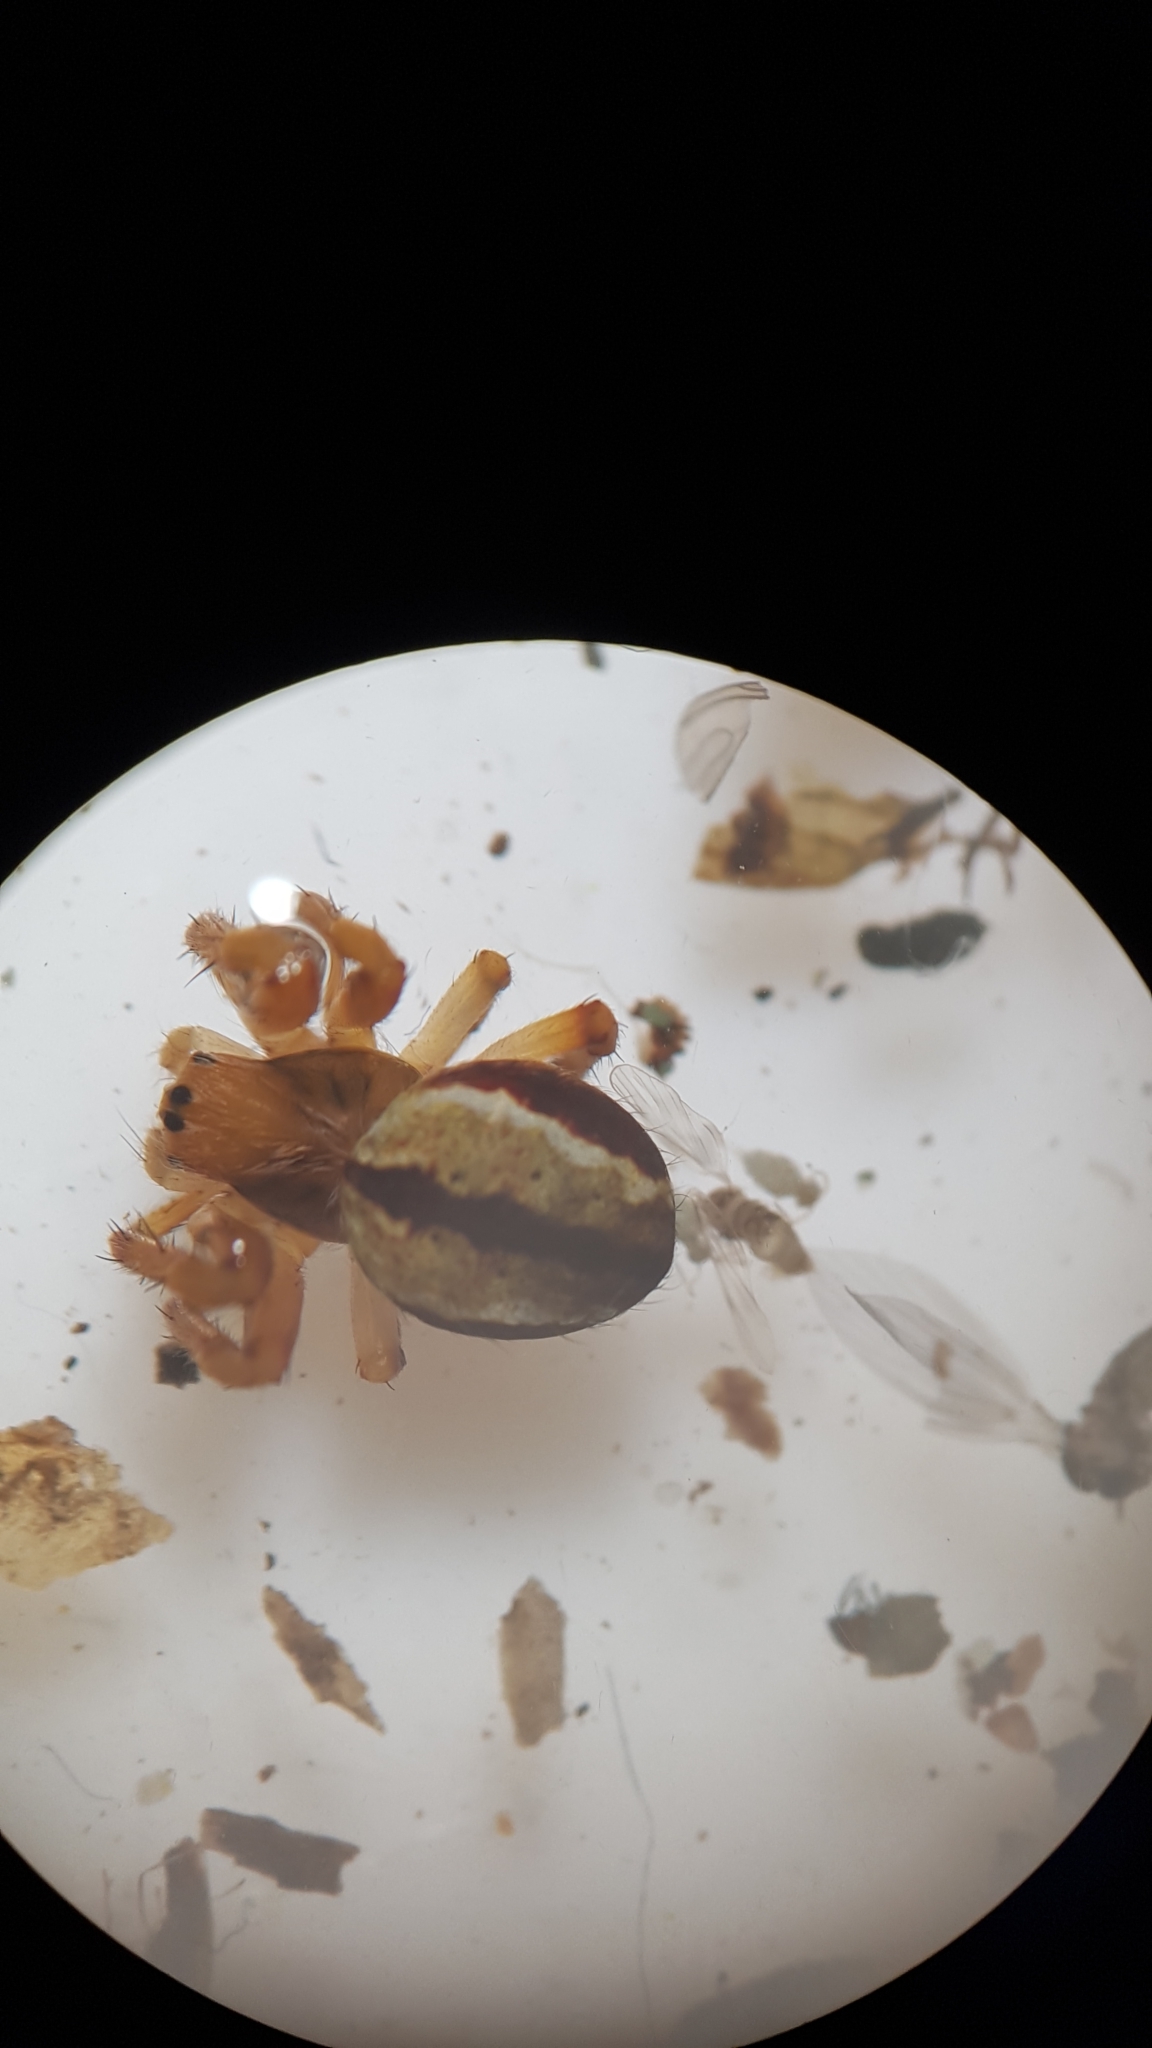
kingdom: Animalia
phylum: Arthropoda
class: Arachnida
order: Araneae
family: Araneidae
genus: Salsa
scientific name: Salsa fuliginata
